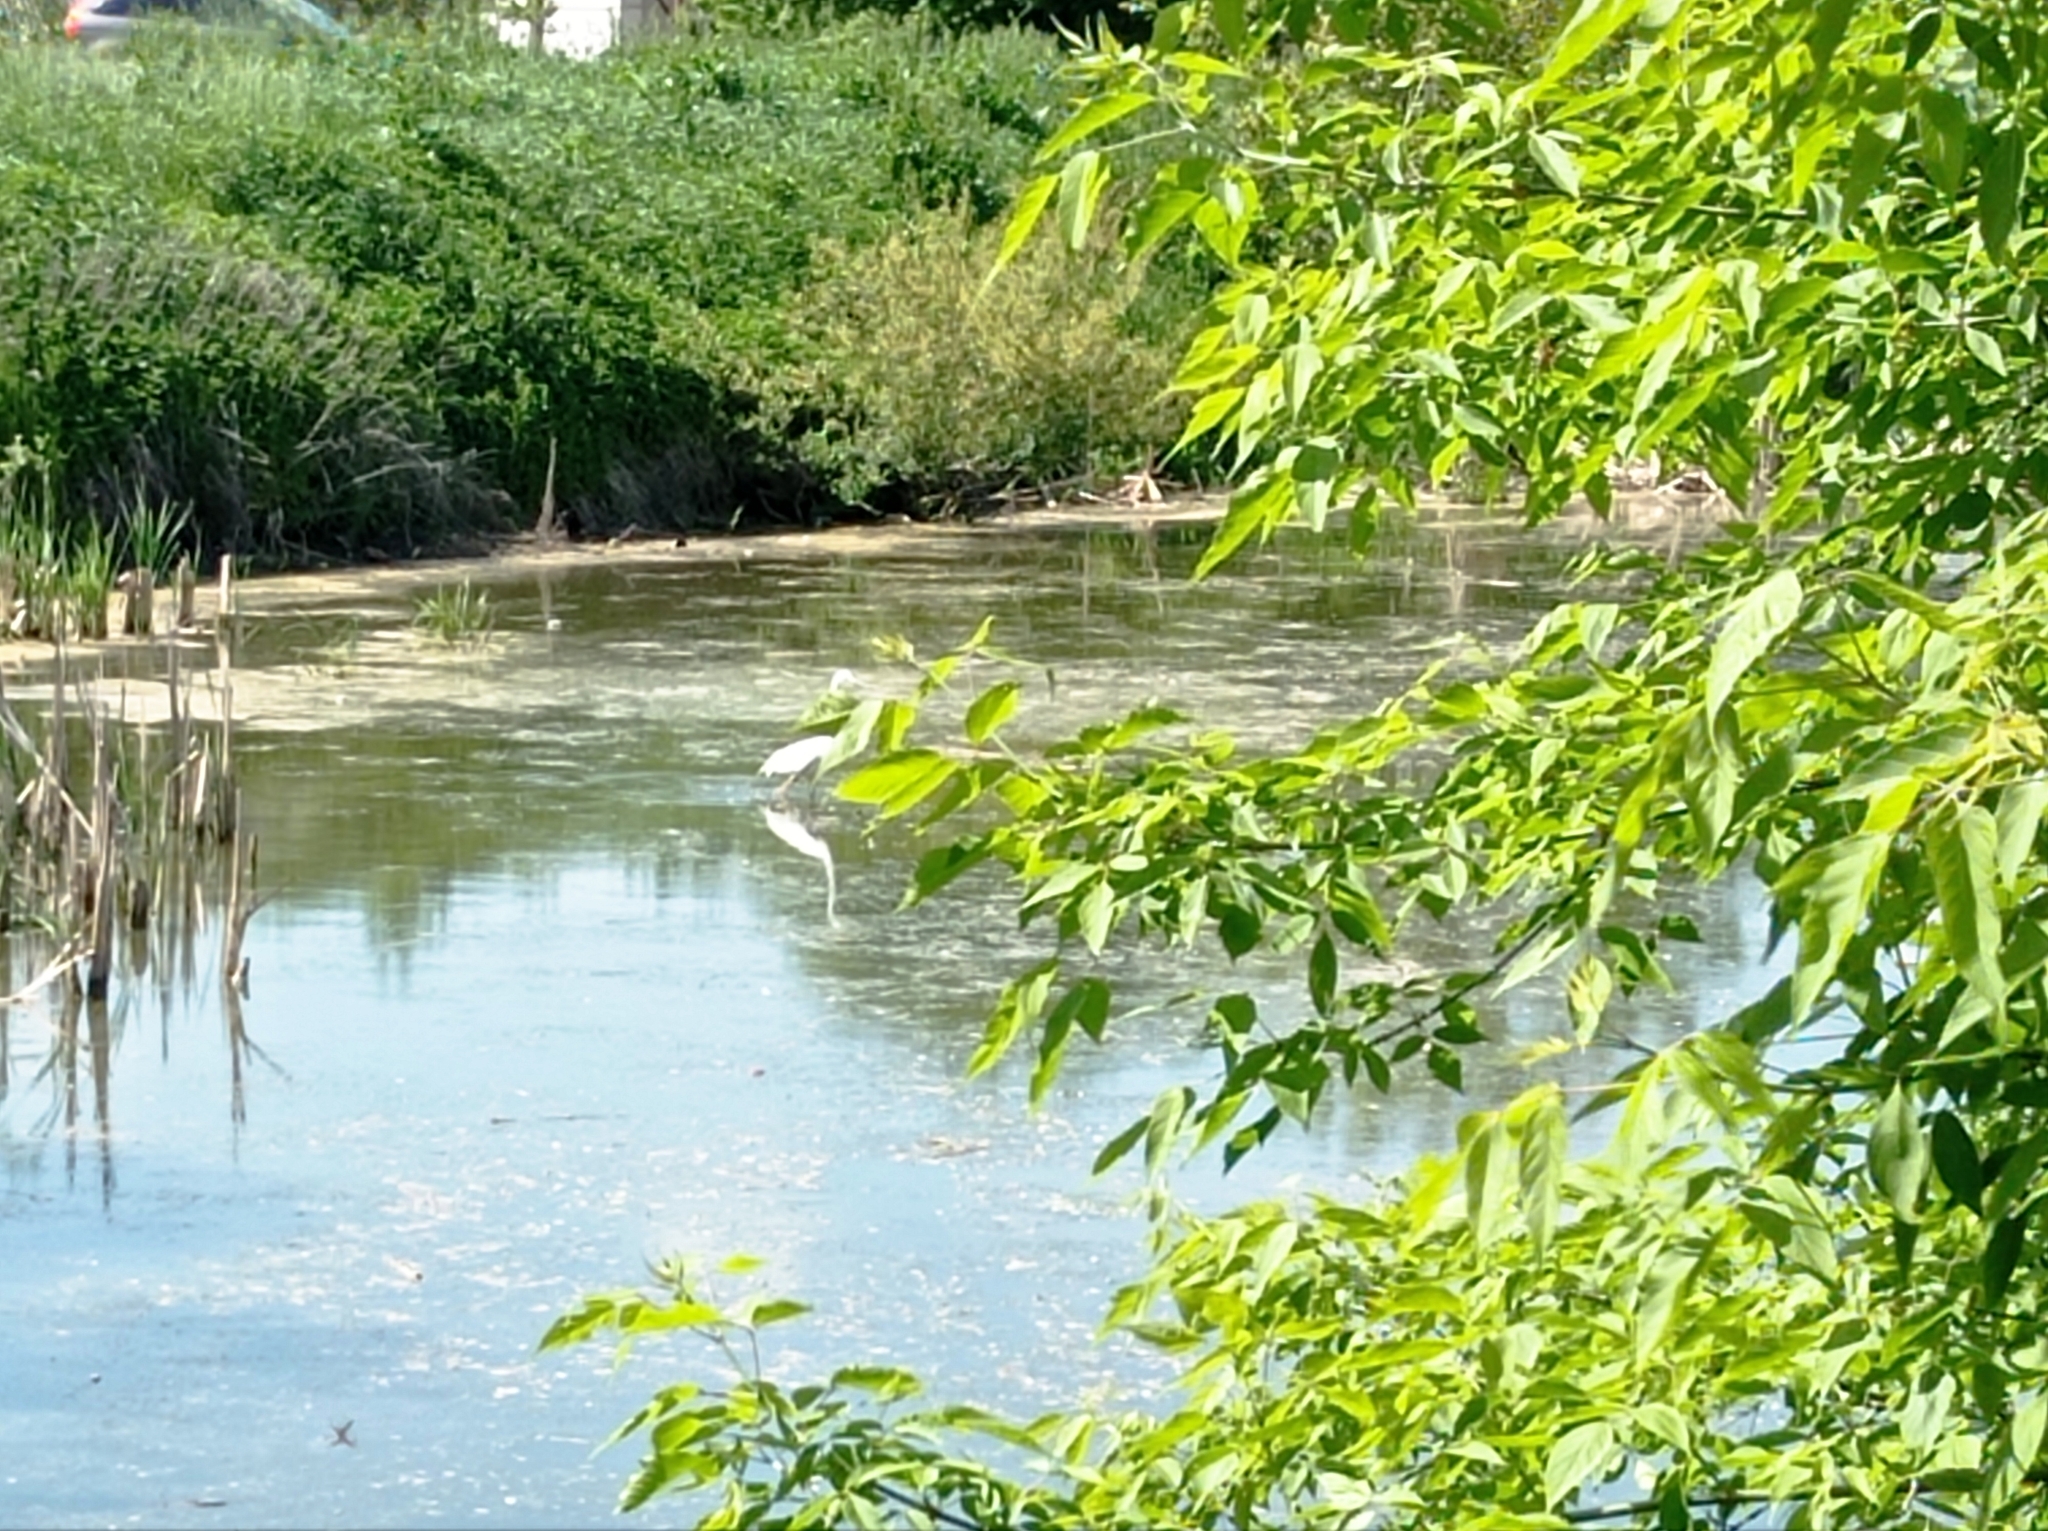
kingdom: Animalia
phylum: Chordata
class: Aves
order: Pelecaniformes
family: Ardeidae
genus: Ardea
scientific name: Ardea alba
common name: Great egret
